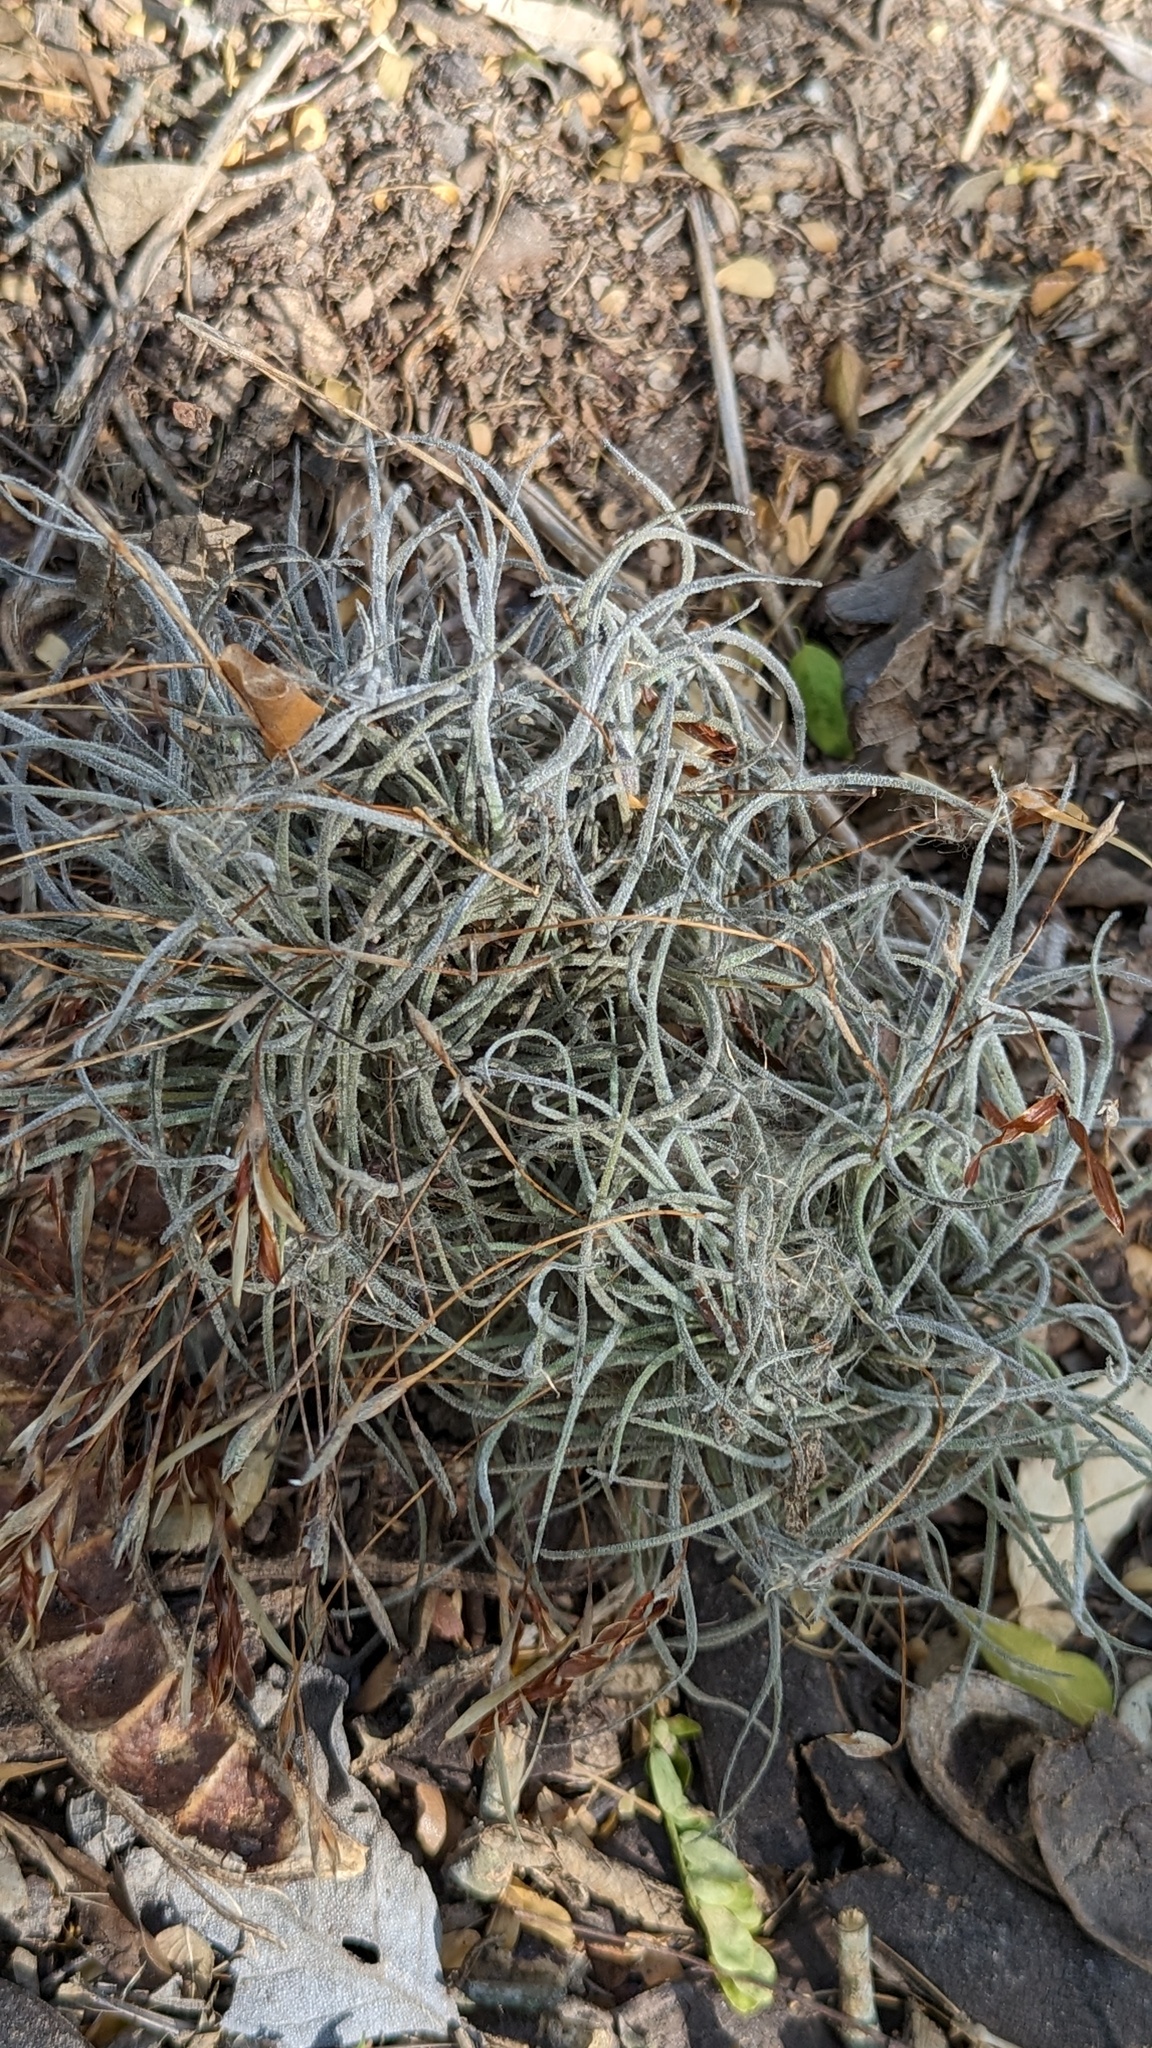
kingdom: Plantae
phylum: Tracheophyta
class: Liliopsida
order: Poales
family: Bromeliaceae
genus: Tillandsia
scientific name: Tillandsia recurvata
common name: Small ballmoss
